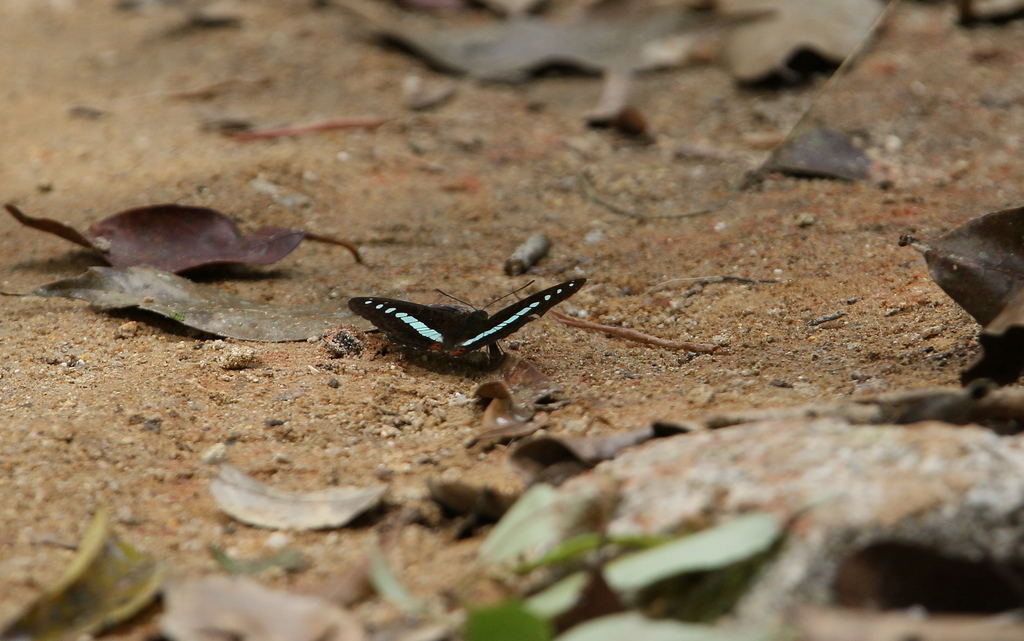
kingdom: Animalia
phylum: Arthropoda
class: Insecta
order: Lepidoptera
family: Nymphalidae
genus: Limenitis
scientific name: Limenitis Sumalia daraxa
